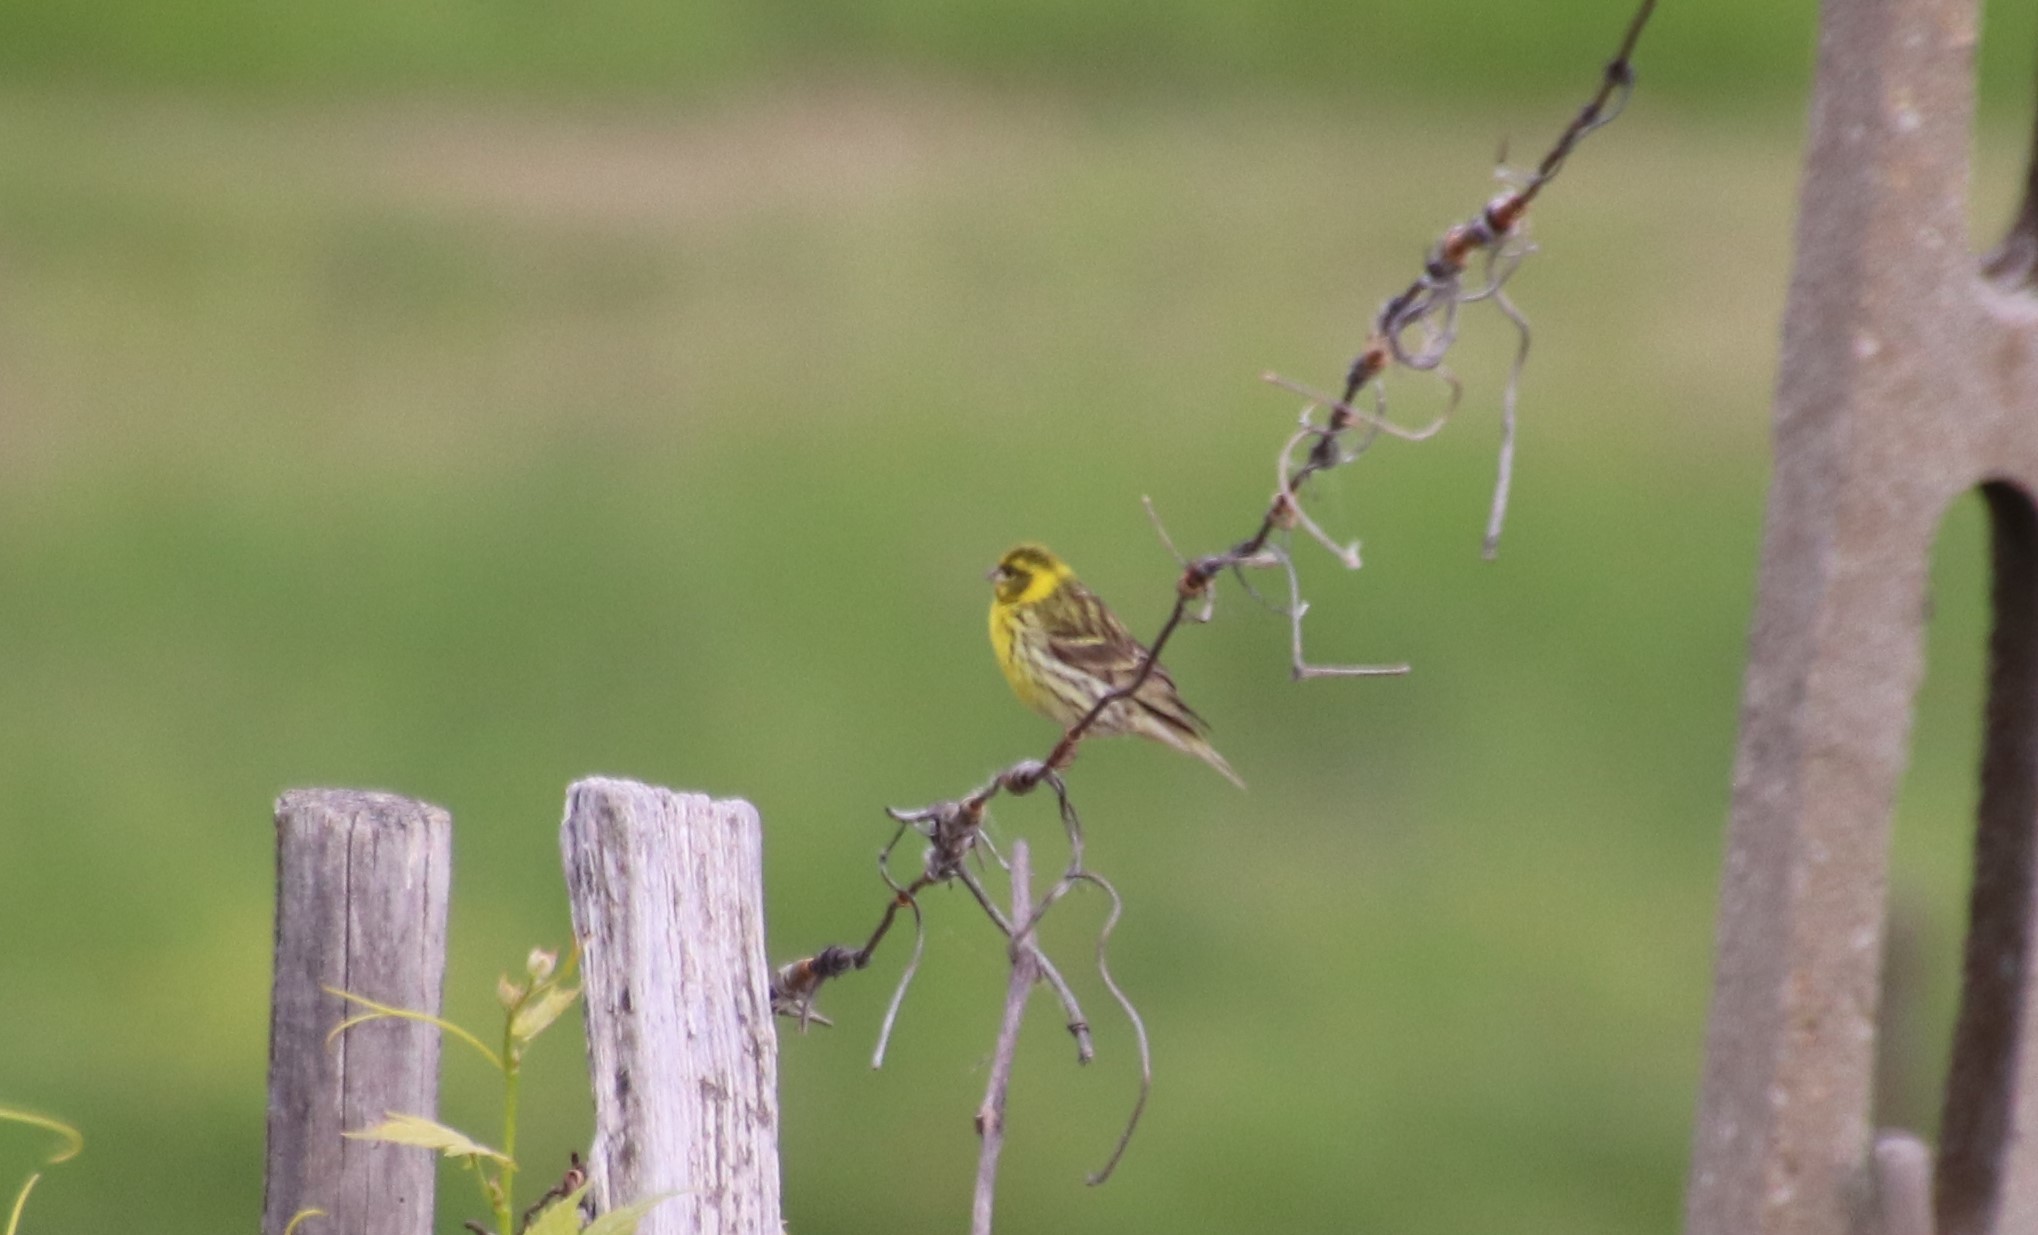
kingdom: Animalia
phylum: Chordata
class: Aves
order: Passeriformes
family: Fringillidae
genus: Serinus
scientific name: Serinus serinus
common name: European serin
